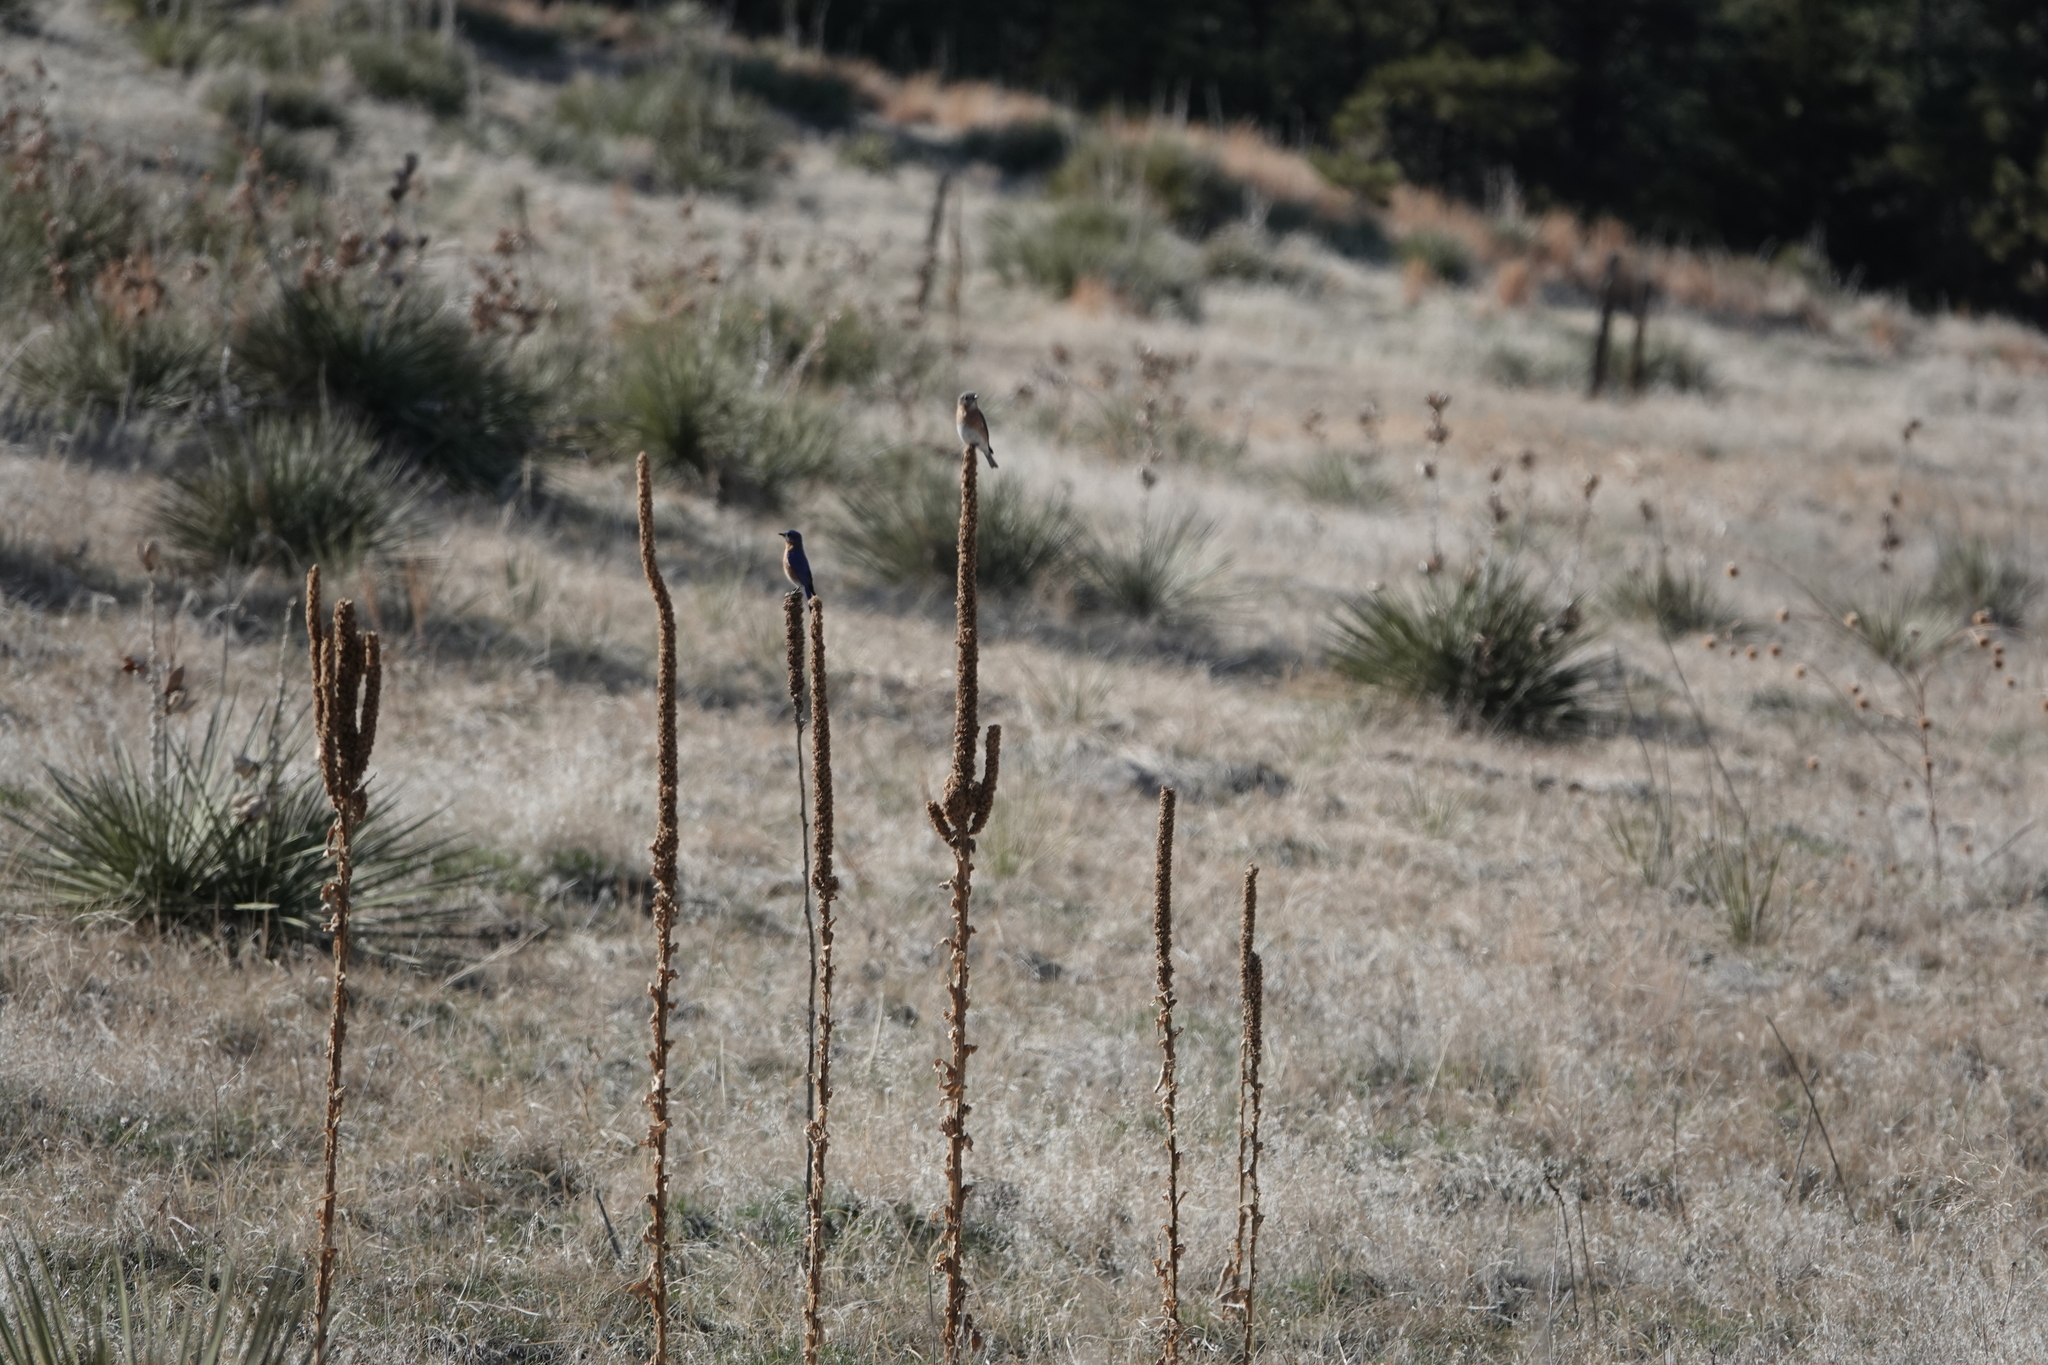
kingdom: Animalia
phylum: Chordata
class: Aves
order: Passeriformes
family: Turdidae
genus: Sialia
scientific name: Sialia sialis
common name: Eastern bluebird
